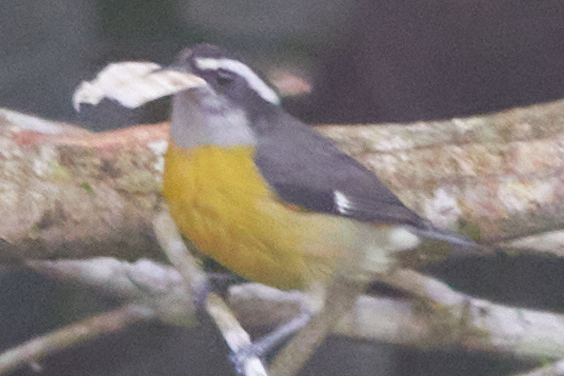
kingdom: Animalia
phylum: Chordata
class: Aves
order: Passeriformes
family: Thraupidae
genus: Coereba
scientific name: Coereba flaveola
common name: Bananaquit
